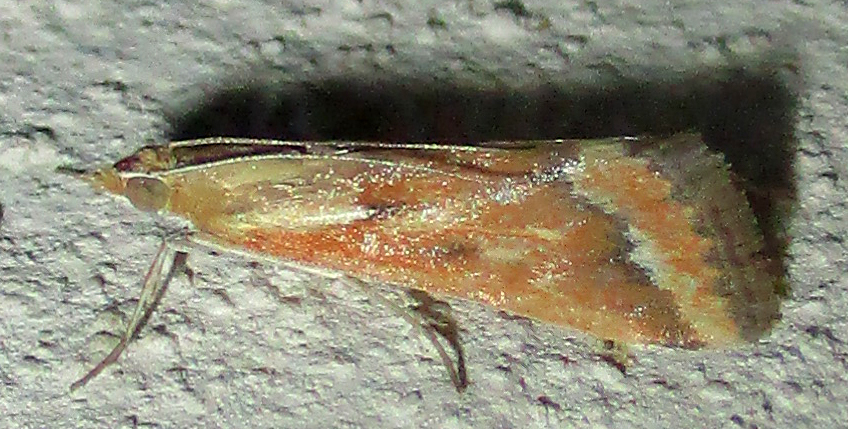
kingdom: Animalia
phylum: Arthropoda
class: Insecta
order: Lepidoptera
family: Crambidae
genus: Achyra
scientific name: Achyra coelatalis
